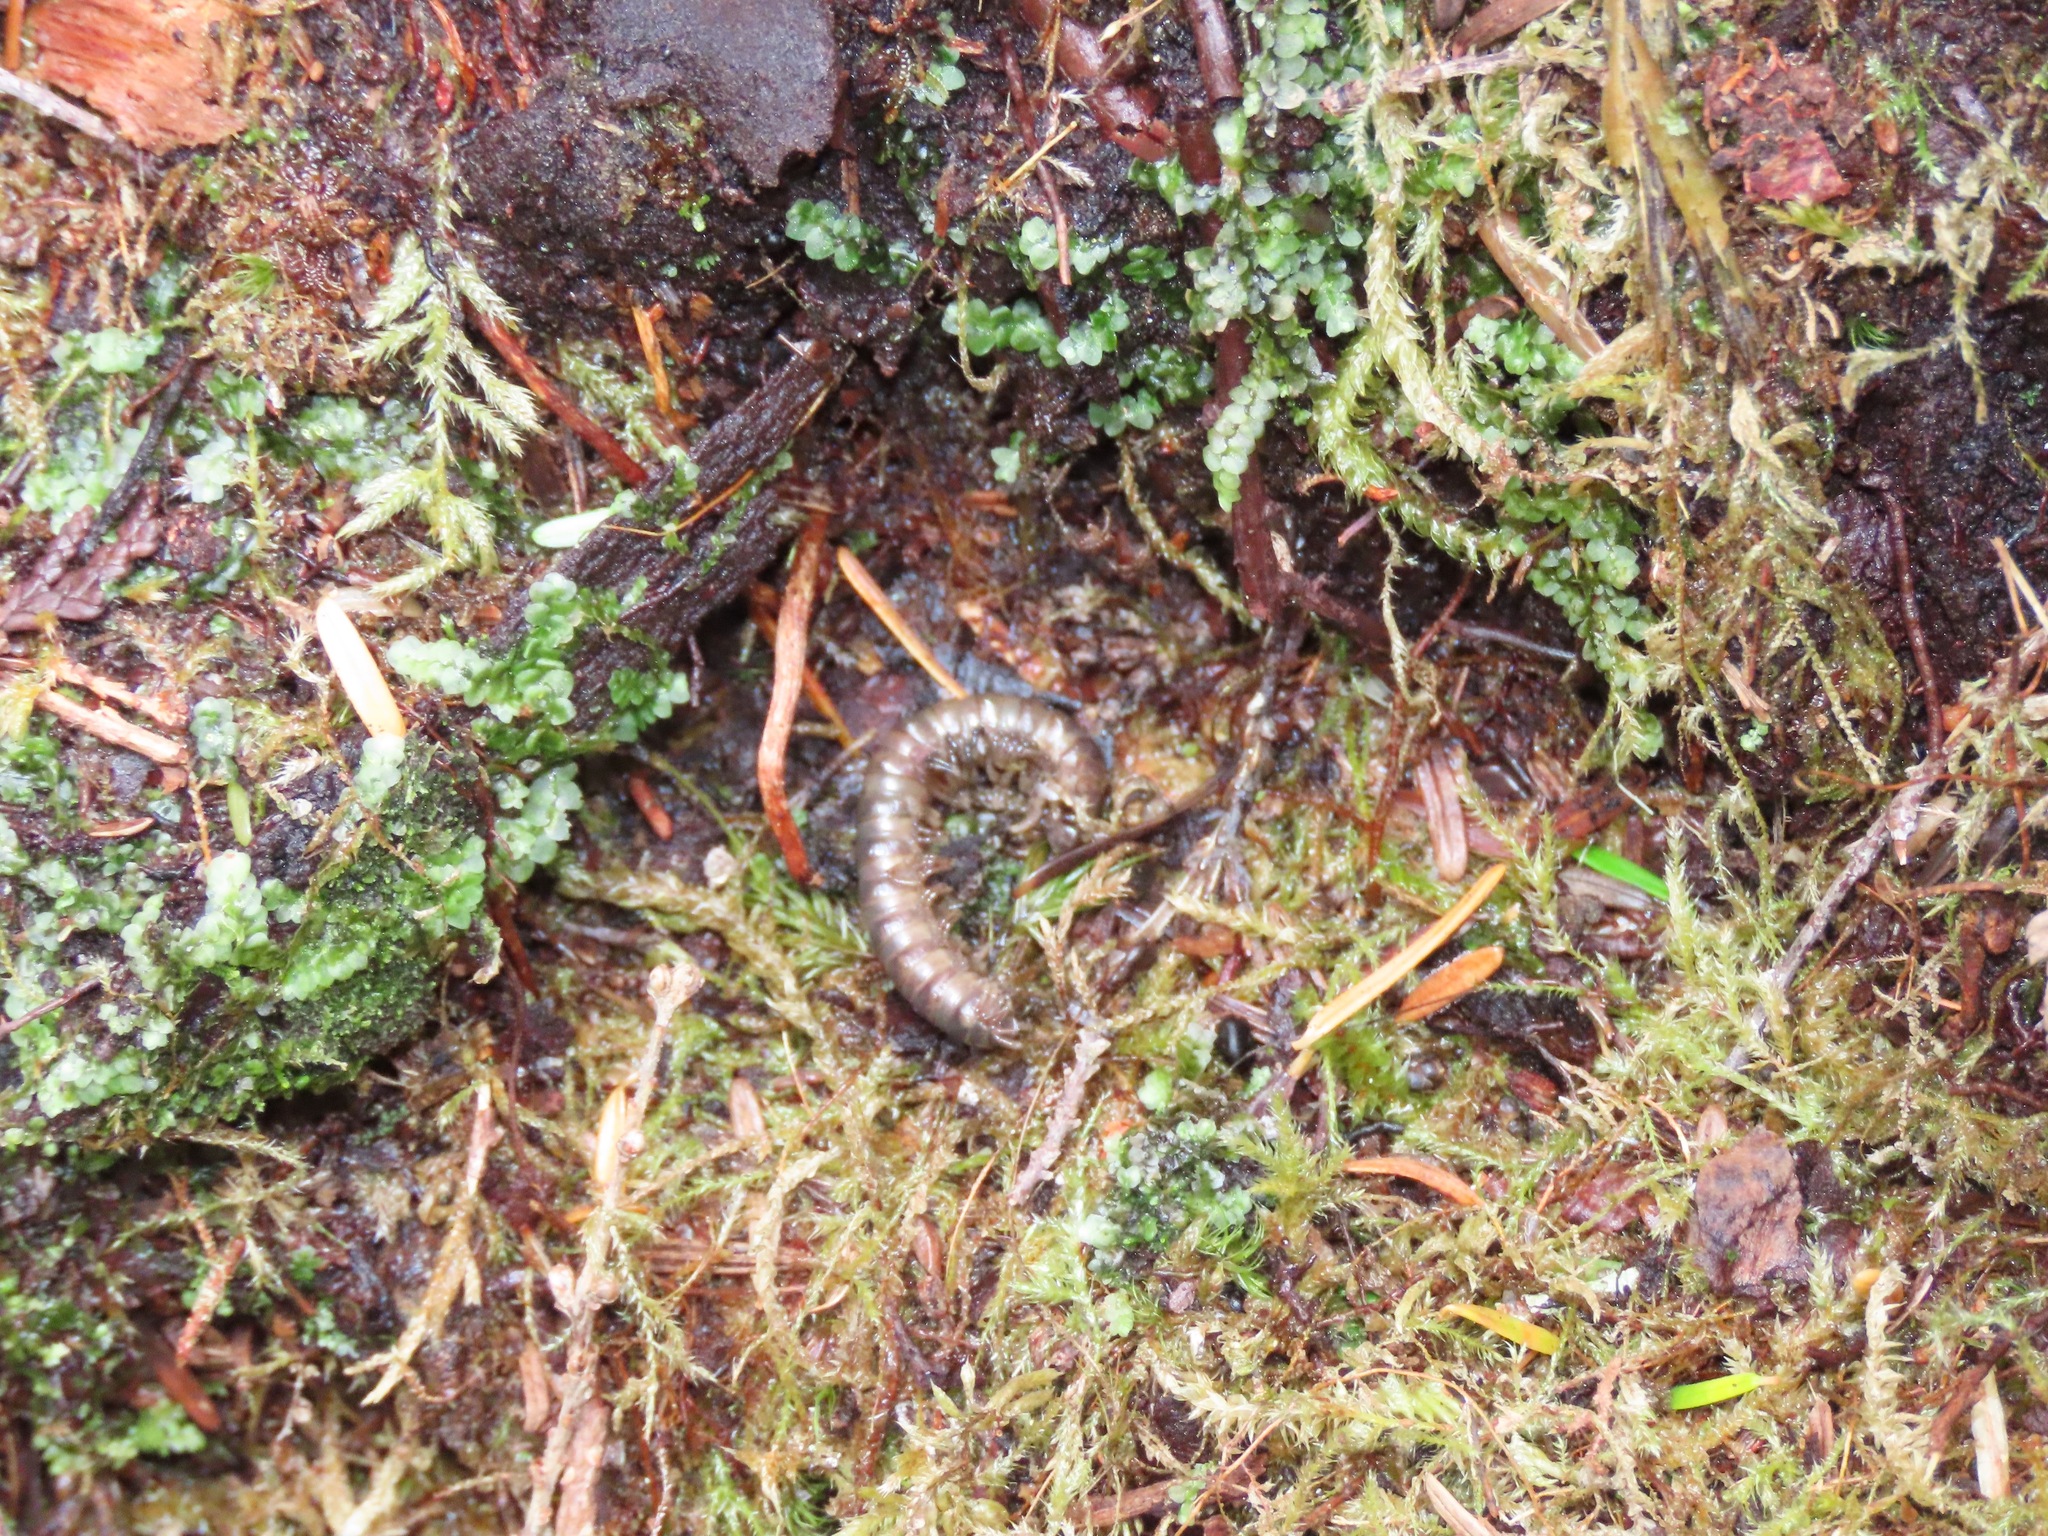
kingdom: Animalia
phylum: Arthropoda
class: Diplopoda
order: Polydesmida
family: Xystodesmidae
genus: Harpaphe
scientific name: Harpaphe haydeniana
